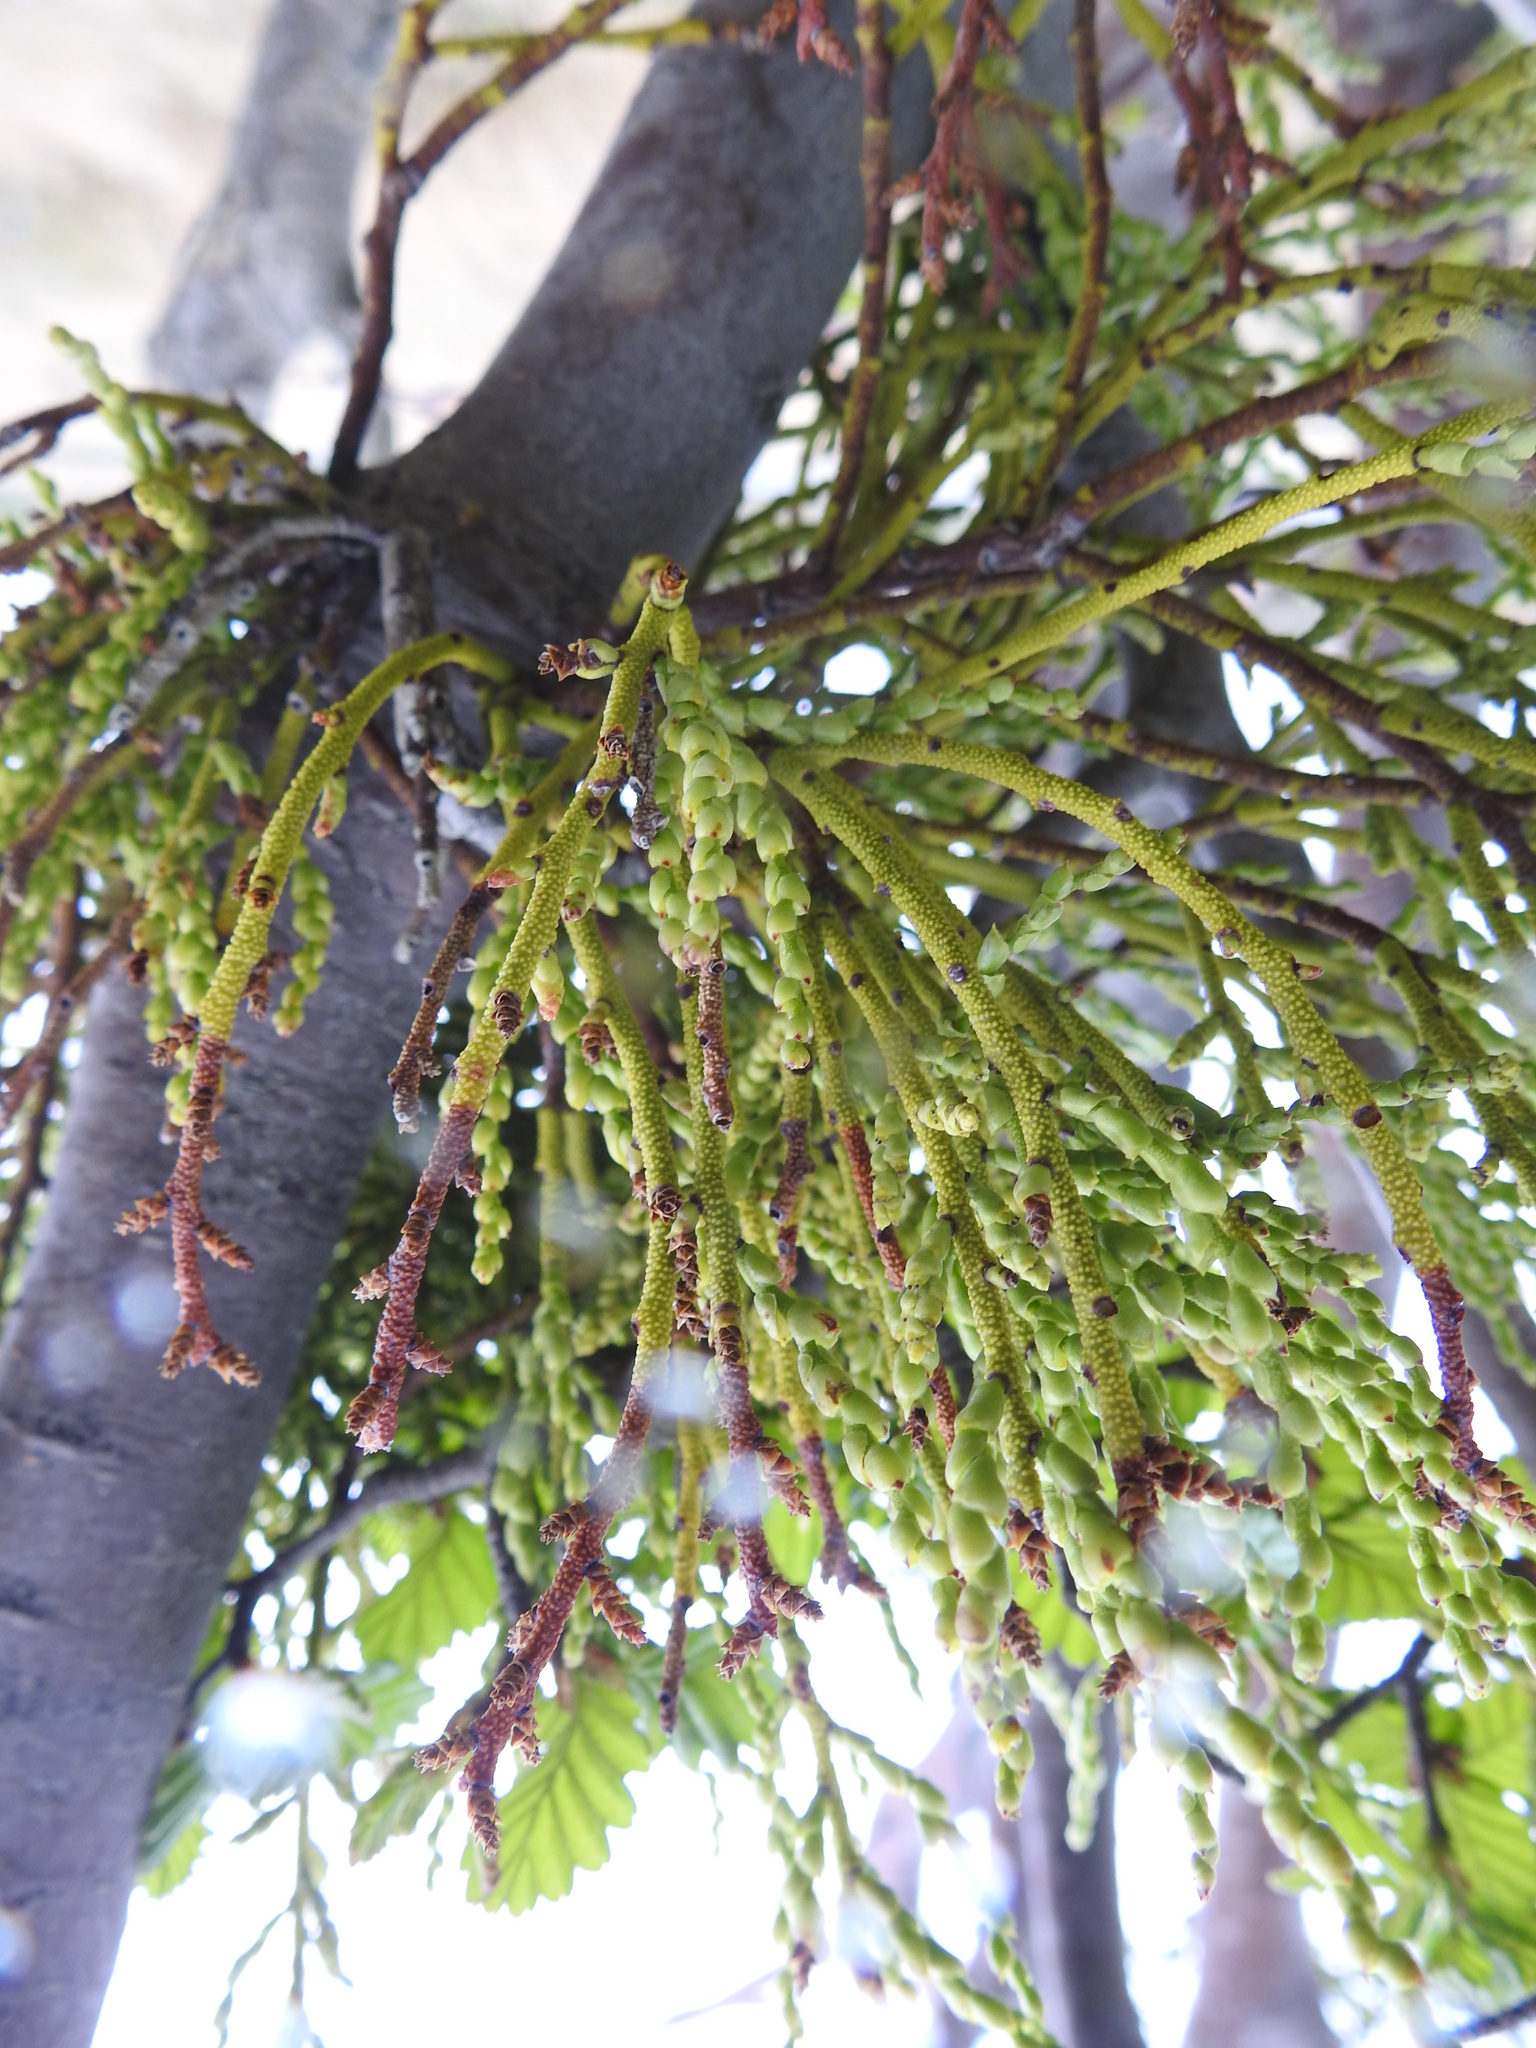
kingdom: Plantae
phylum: Tracheophyta
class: Magnoliopsida
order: Santalales
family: Misodendraceae
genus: Misodendrum
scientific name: Misodendrum punctulatum
